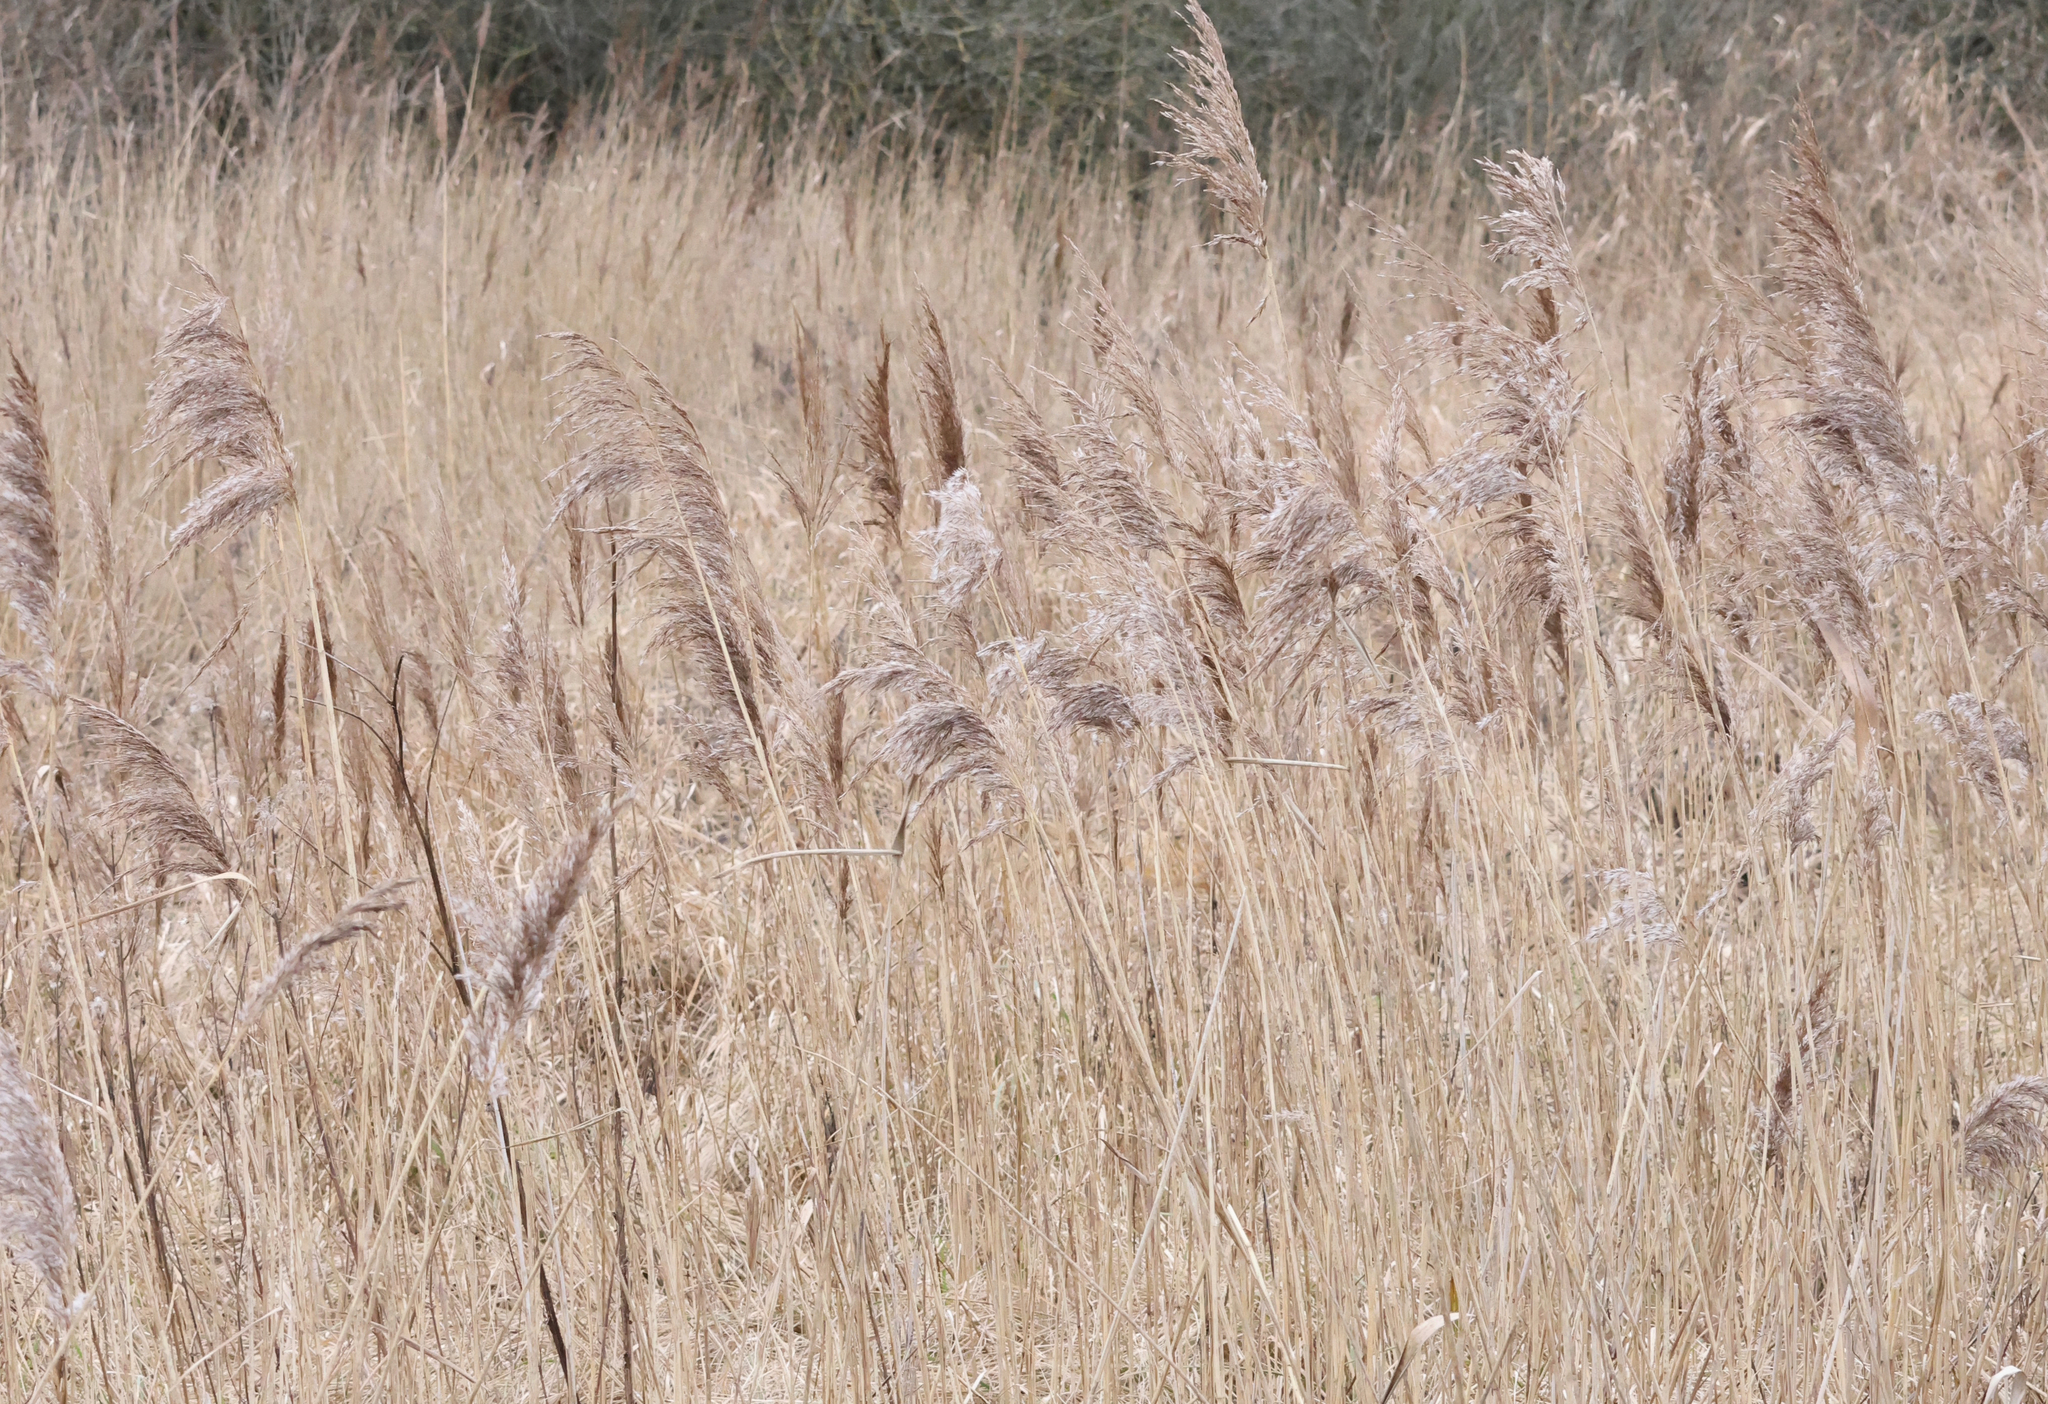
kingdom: Plantae
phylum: Tracheophyta
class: Liliopsida
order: Poales
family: Poaceae
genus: Phragmites
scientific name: Phragmites australis
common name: Common reed
